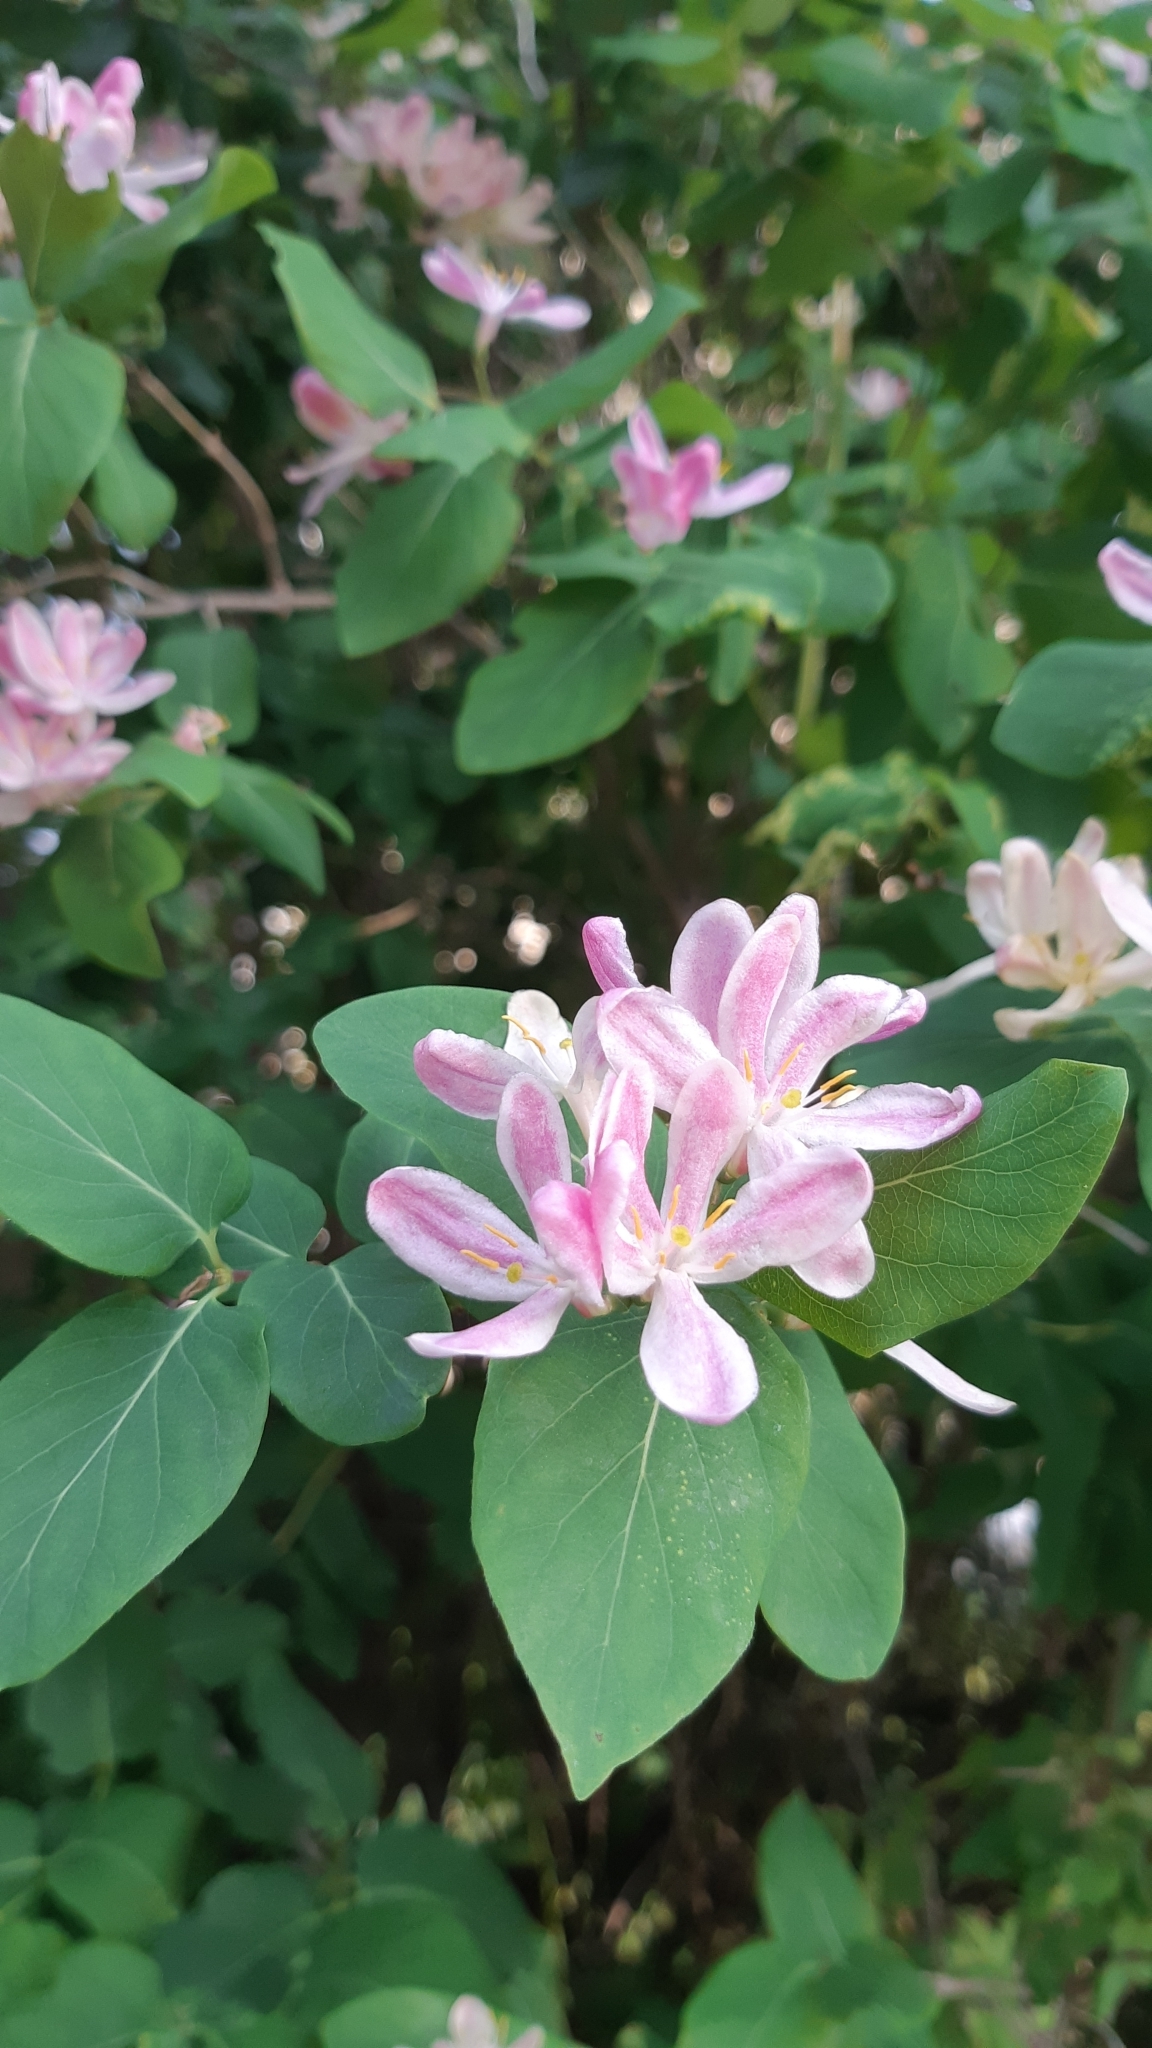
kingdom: Plantae
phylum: Tracheophyta
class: Magnoliopsida
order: Dipsacales
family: Caprifoliaceae
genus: Lonicera
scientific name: Lonicera tatarica
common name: Tatarian honeysuckle
